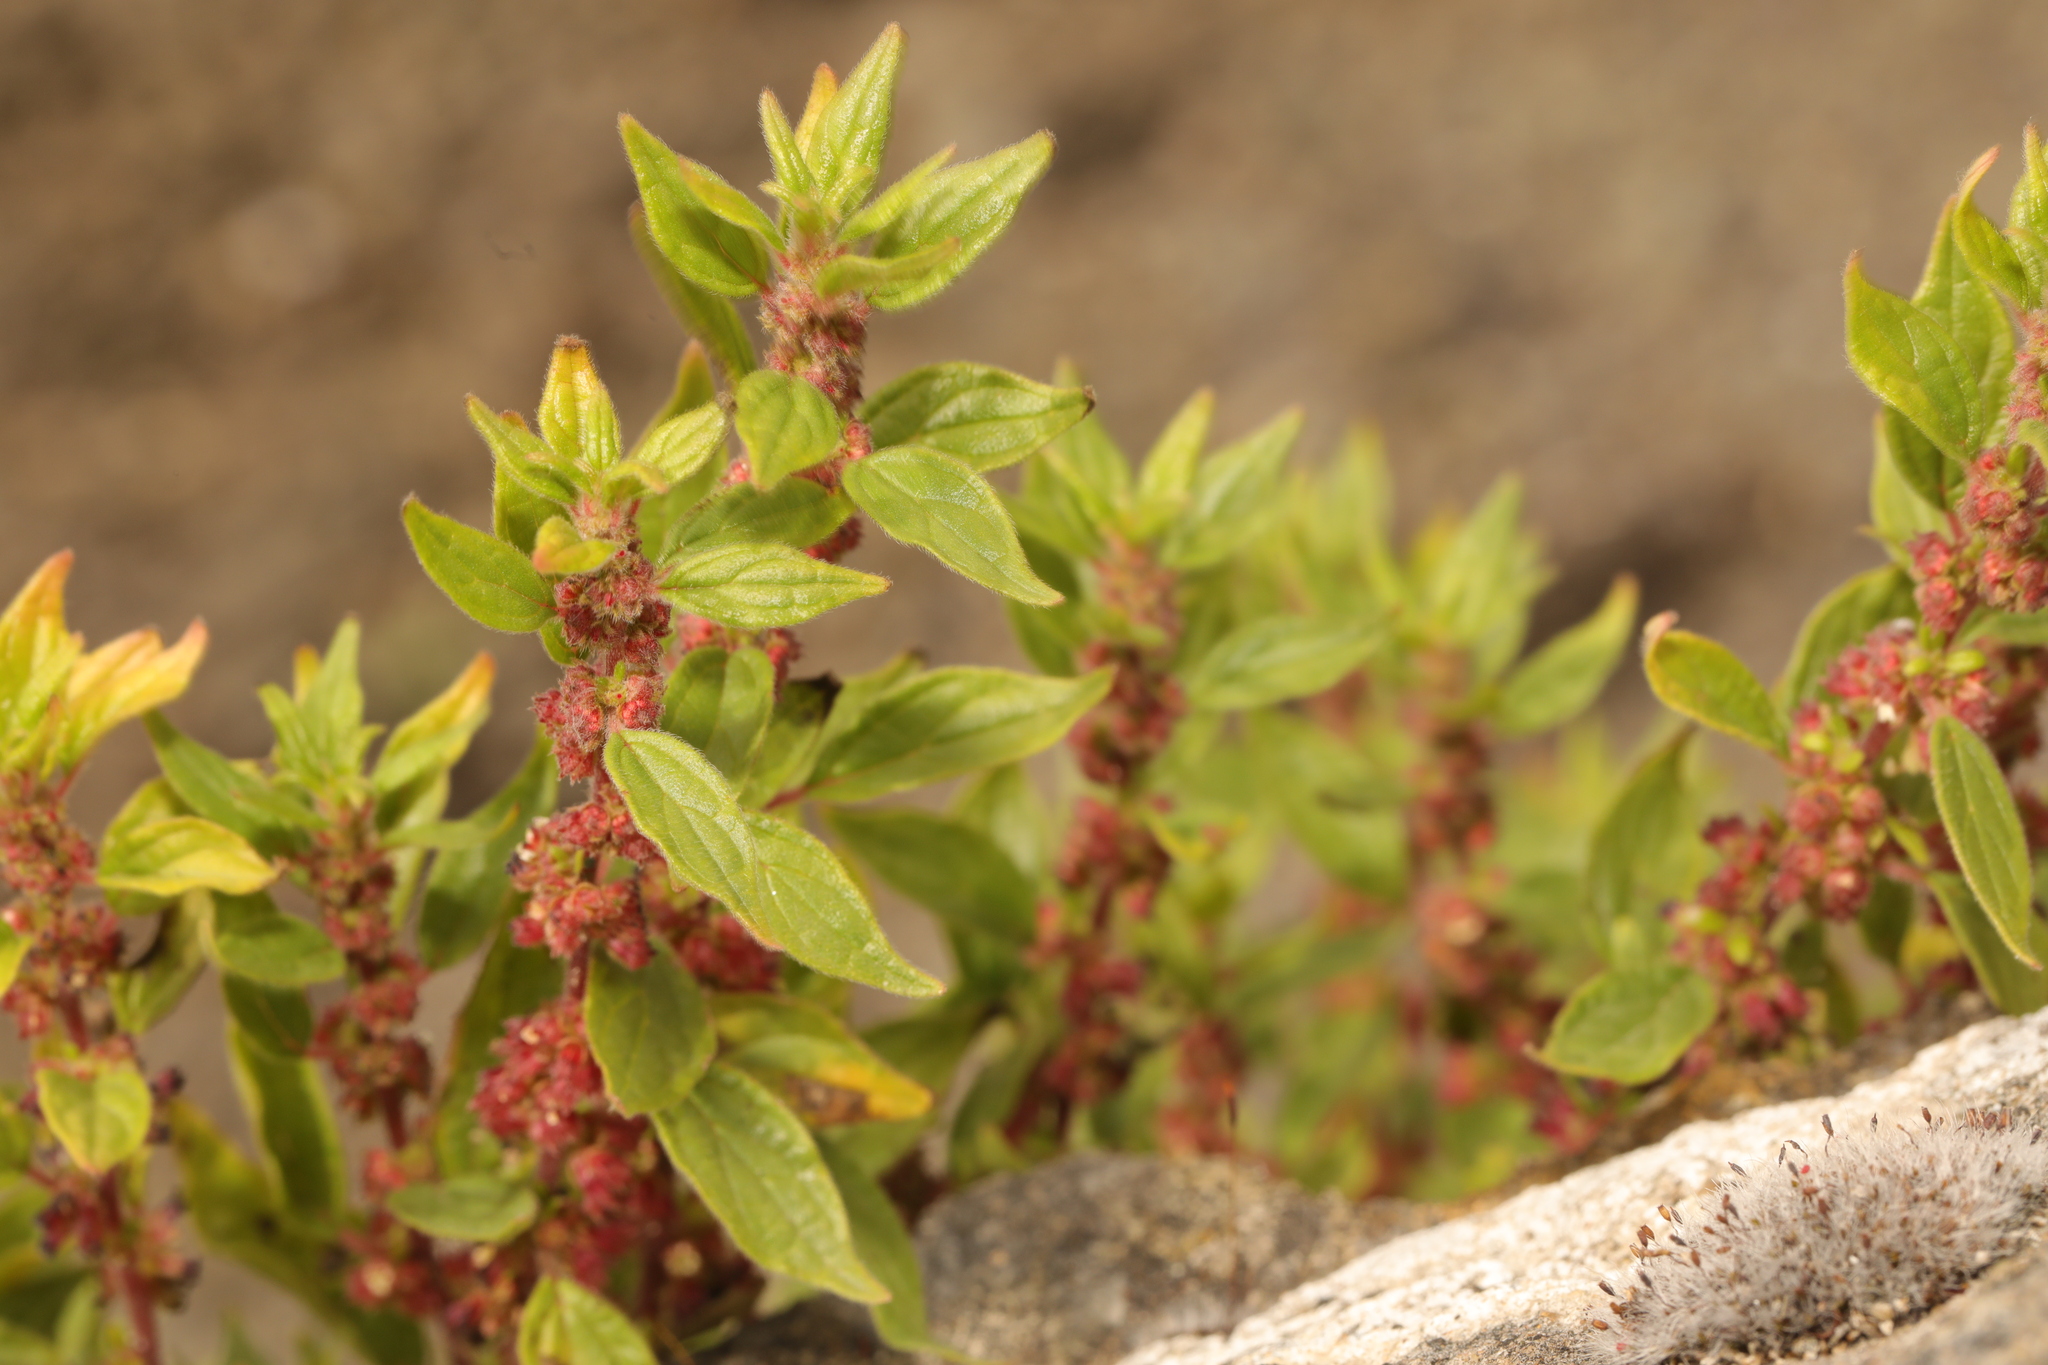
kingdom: Plantae
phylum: Tracheophyta
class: Magnoliopsida
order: Rosales
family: Urticaceae
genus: Parietaria
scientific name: Parietaria judaica
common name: Pellitory-of-the-wall
